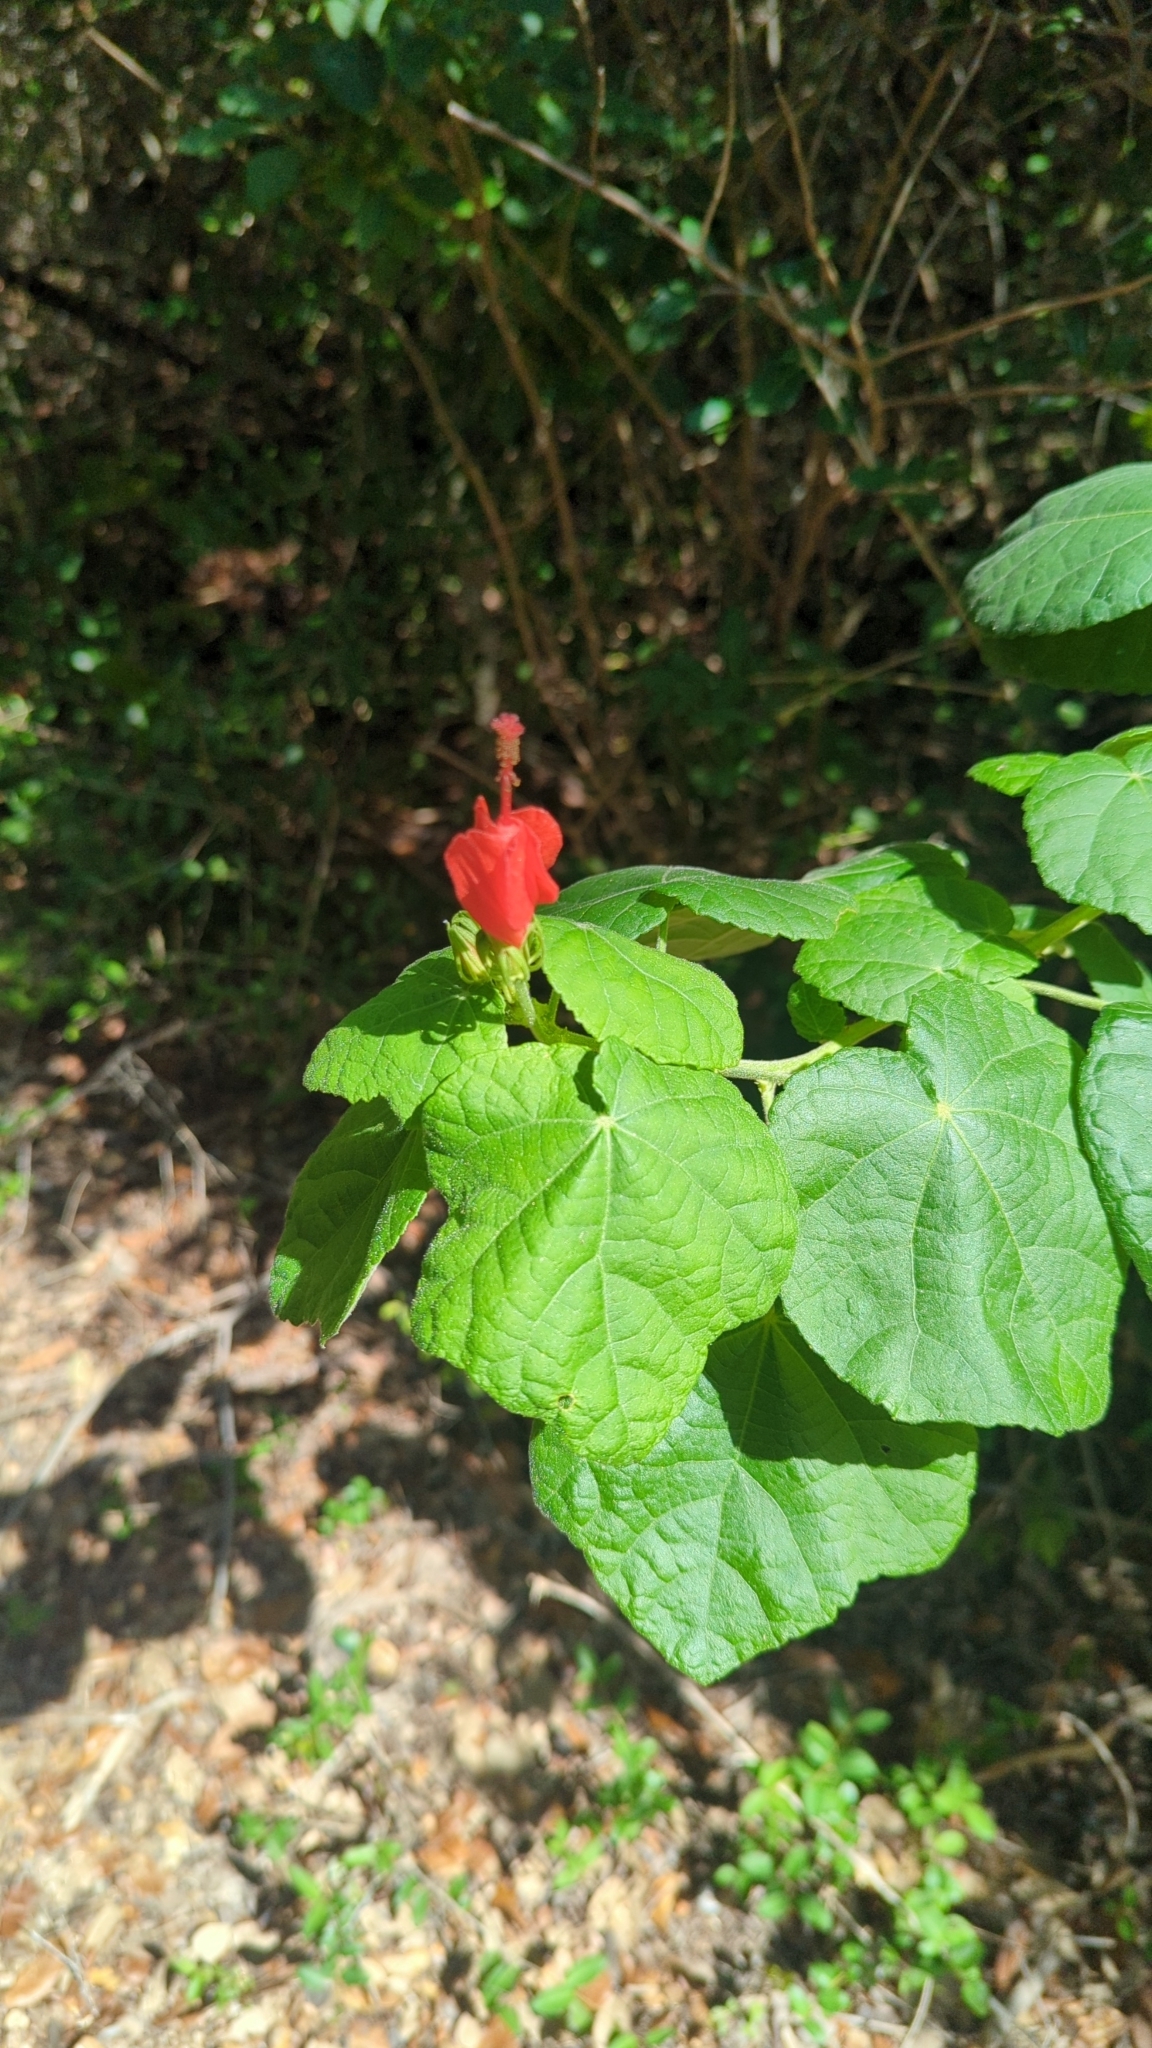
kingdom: Plantae
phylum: Tracheophyta
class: Magnoliopsida
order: Malvales
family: Malvaceae
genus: Malvaviscus
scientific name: Malvaviscus arboreus
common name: Wax mallow
